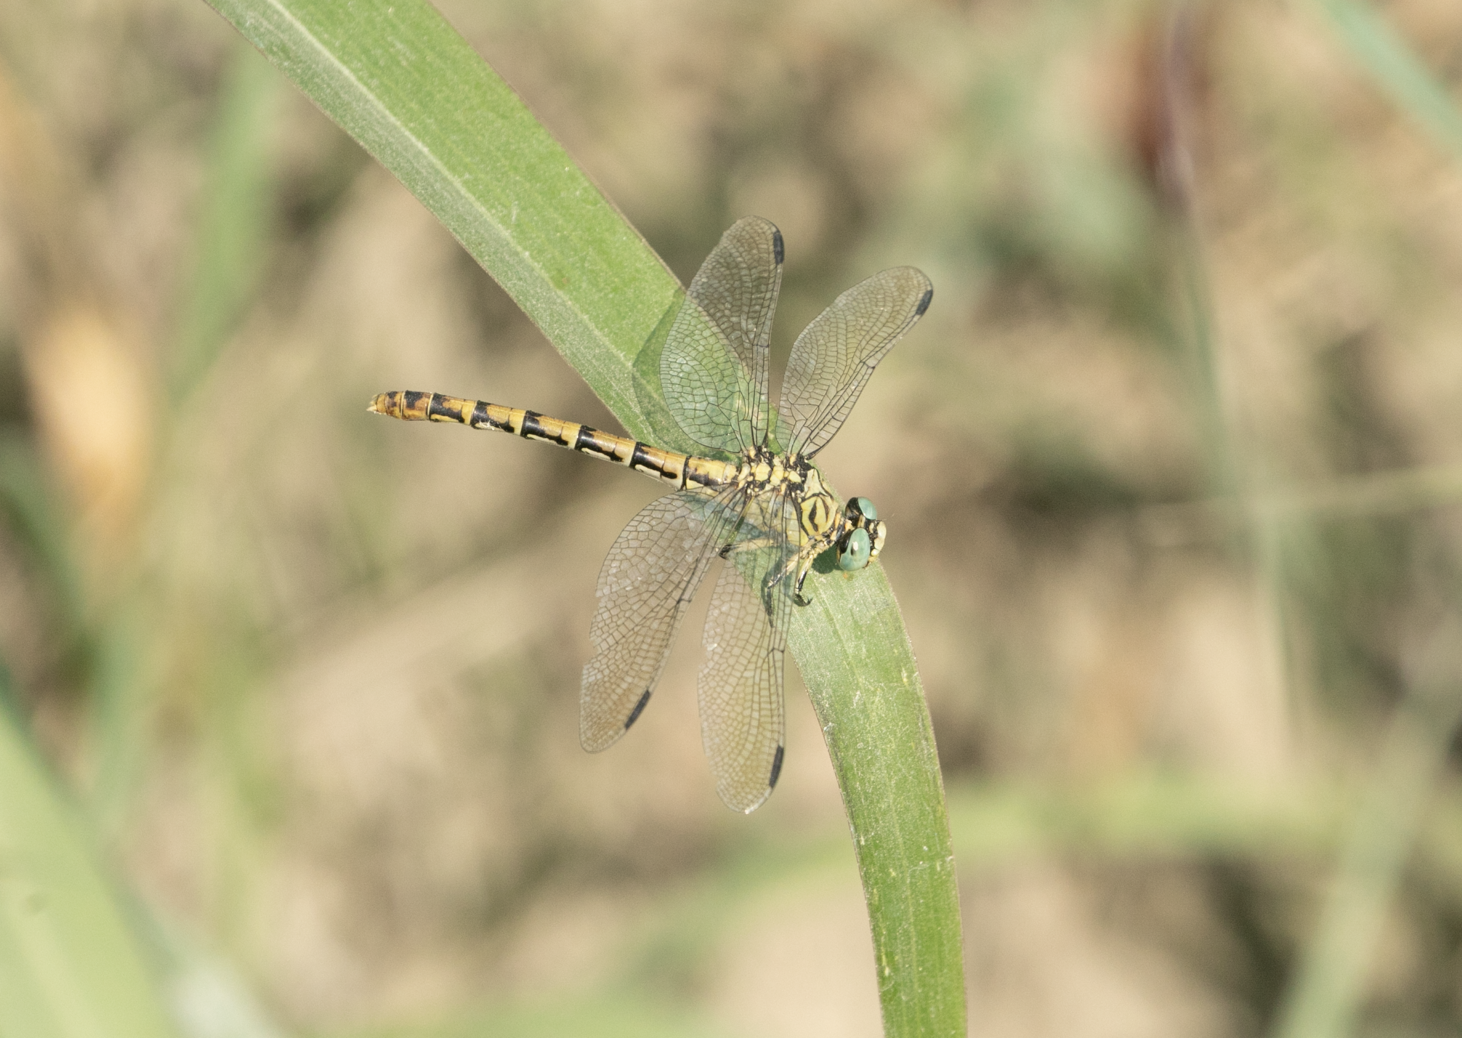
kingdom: Animalia
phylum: Arthropoda
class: Insecta
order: Odonata
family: Gomphidae
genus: Onychogomphus
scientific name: Onychogomphus forcipatus
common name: Small pincertail
